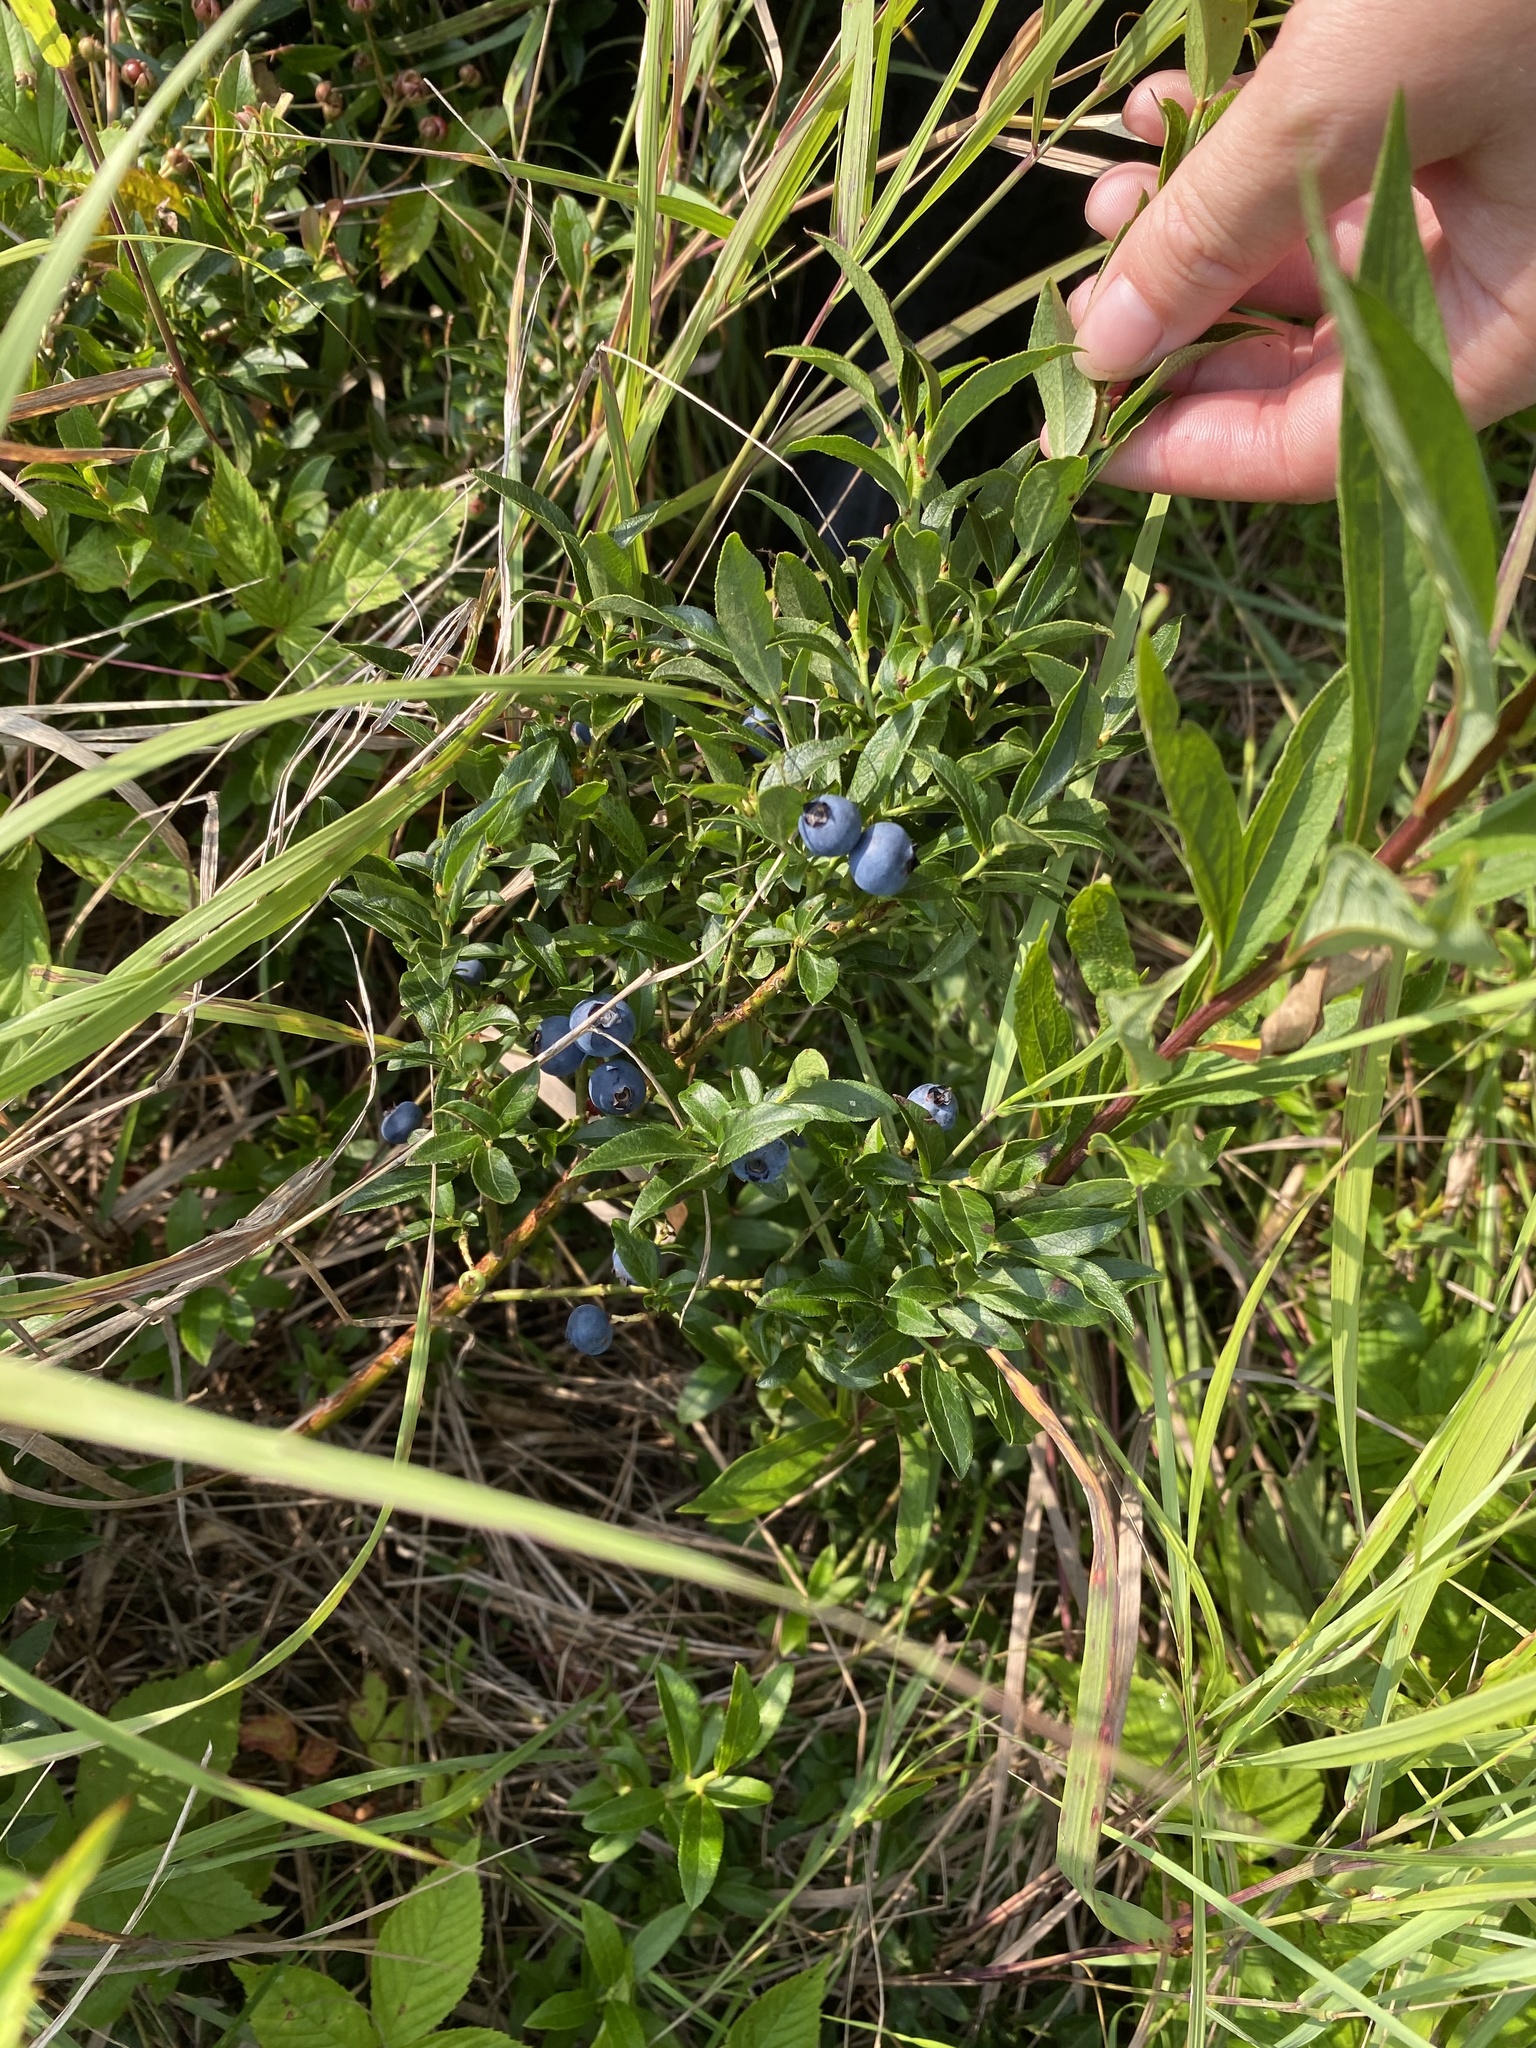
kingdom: Plantae
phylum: Tracheophyta
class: Magnoliopsida
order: Ericales
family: Ericaceae
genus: Vaccinium
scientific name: Vaccinium angustifolium
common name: Early lowbush blueberry
